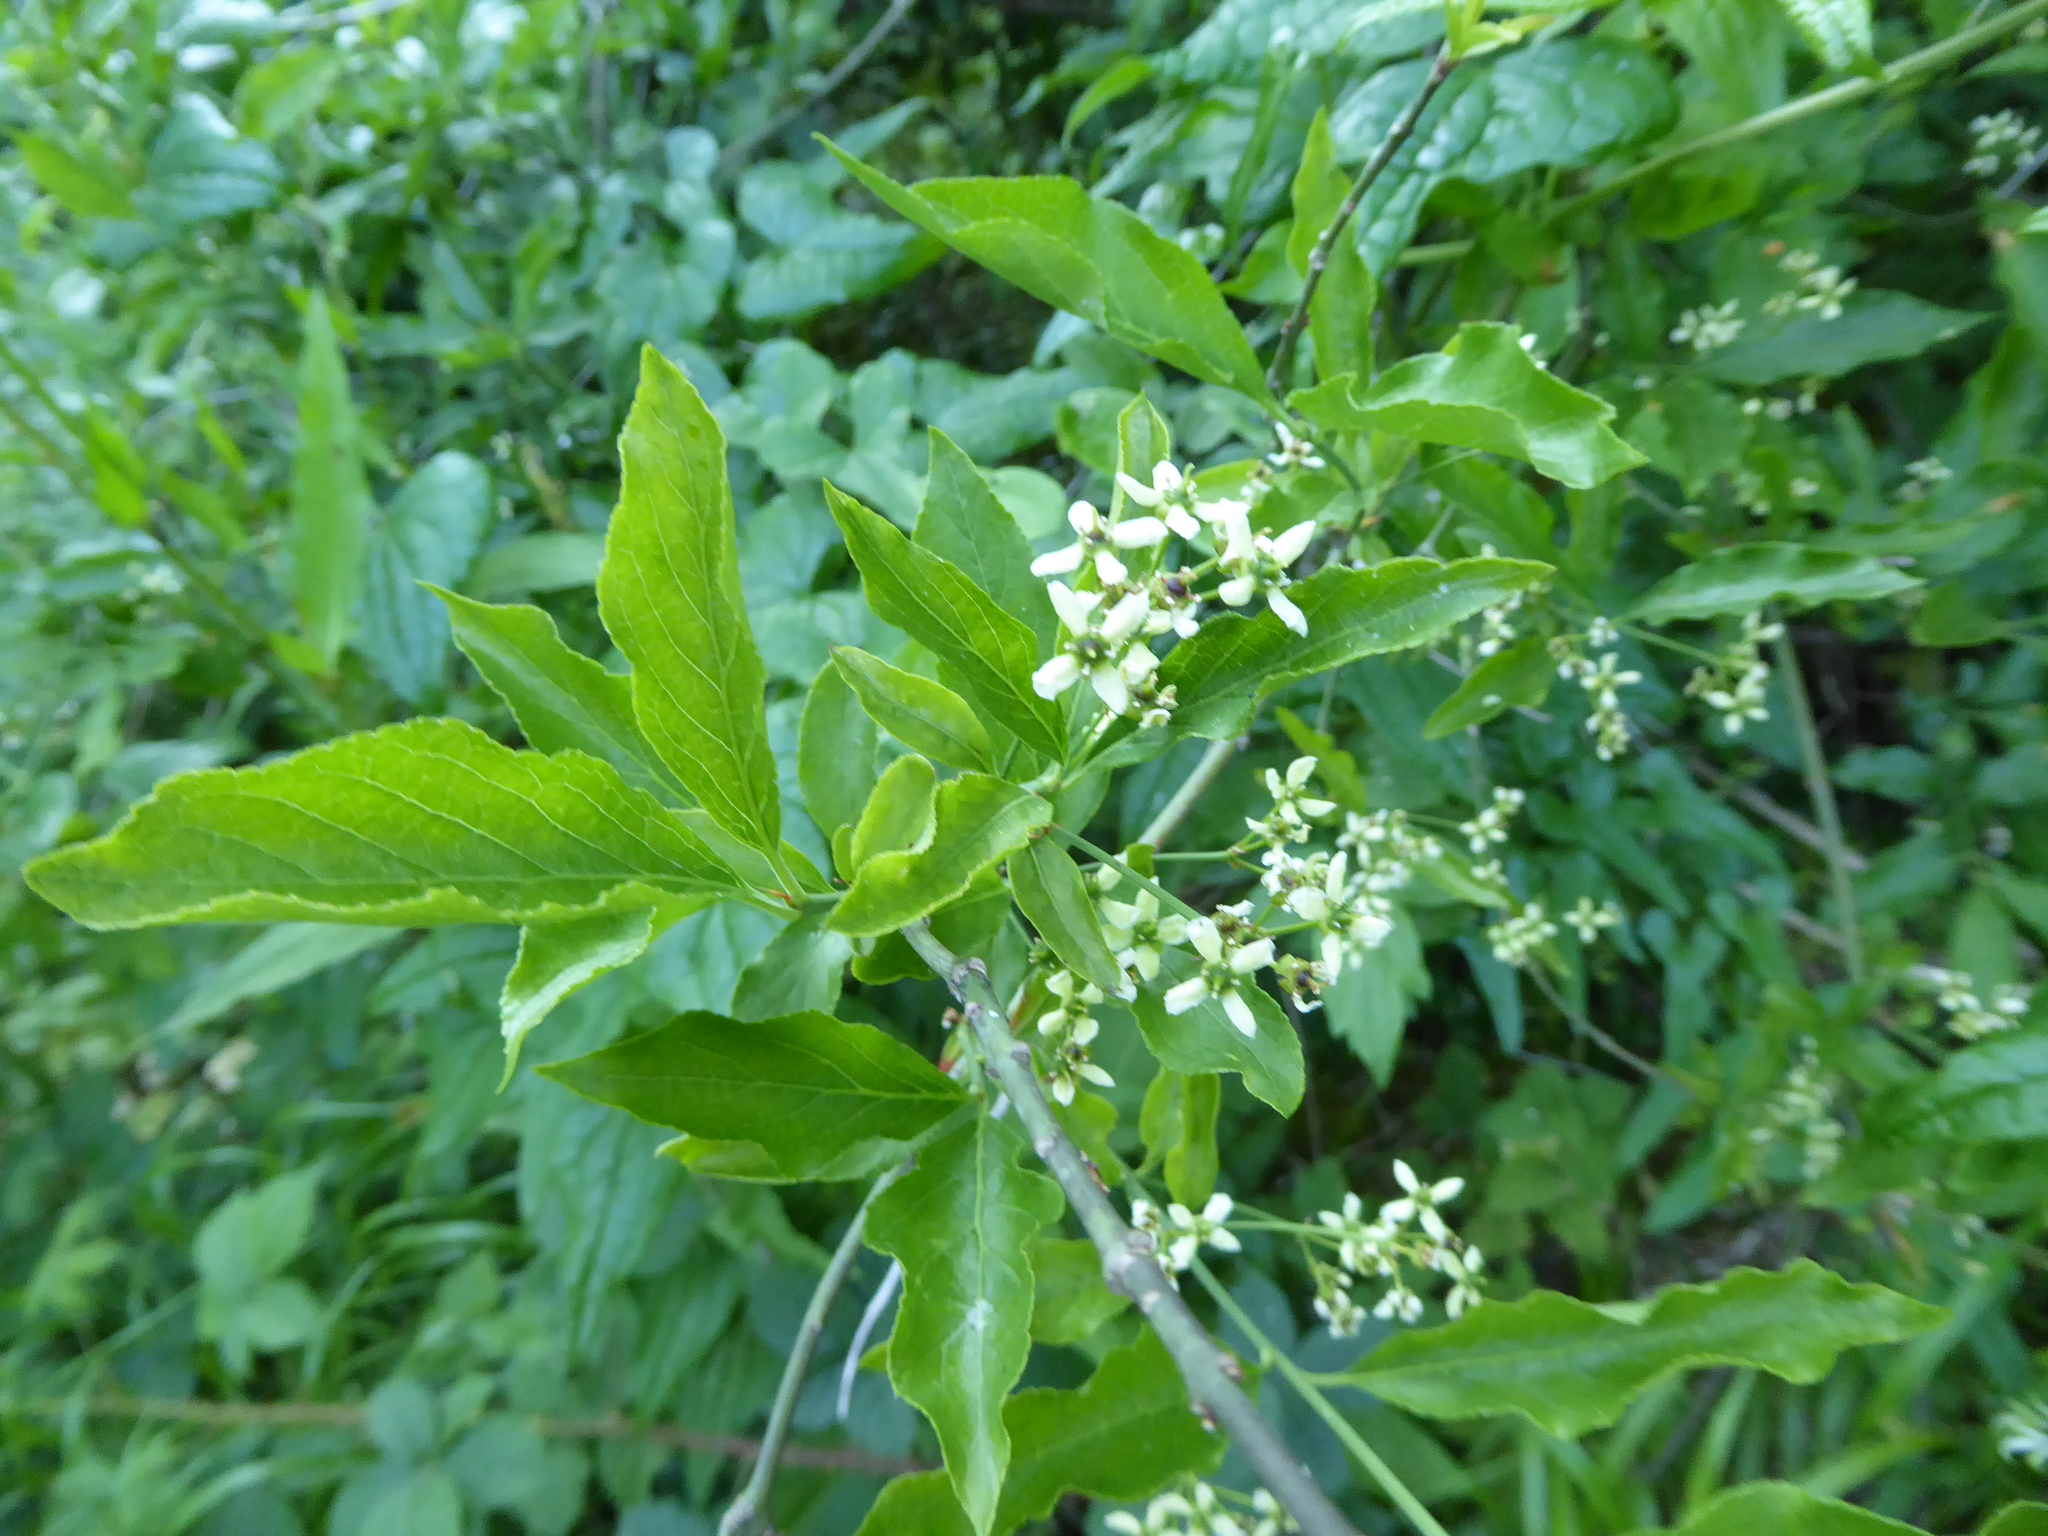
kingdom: Plantae
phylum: Tracheophyta
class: Magnoliopsida
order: Celastrales
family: Celastraceae
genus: Euonymus
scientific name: Euonymus europaeus
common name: Spindle
